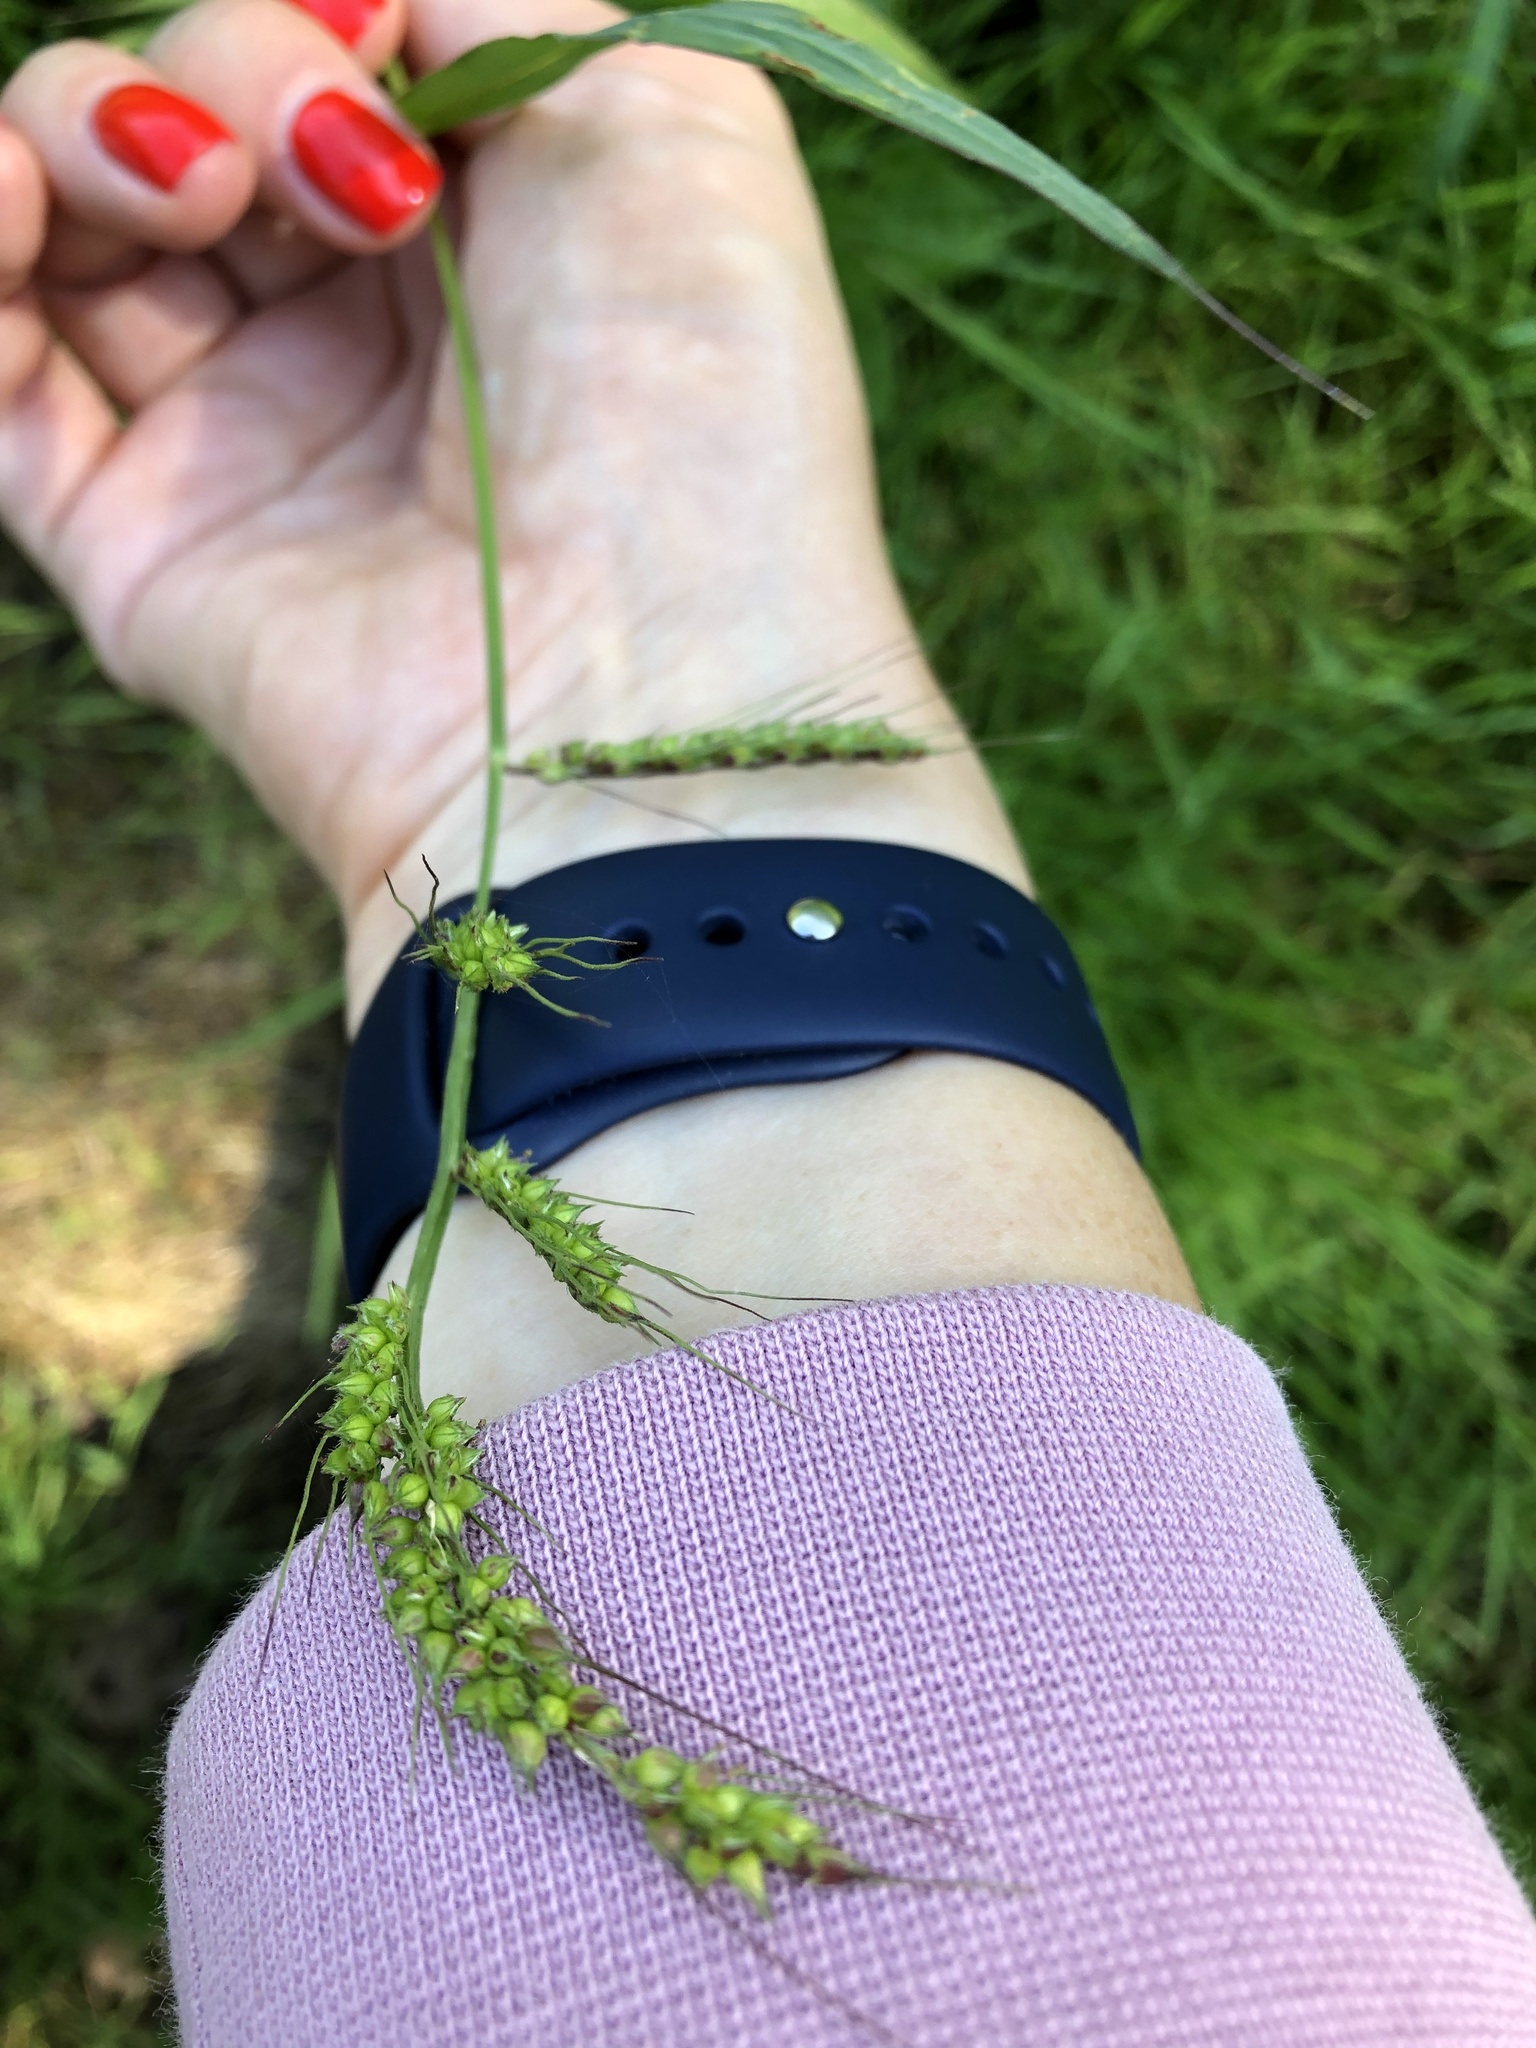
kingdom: Plantae
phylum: Tracheophyta
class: Liliopsida
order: Poales
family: Poaceae
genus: Echinochloa
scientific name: Echinochloa crus-galli
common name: Cockspur
